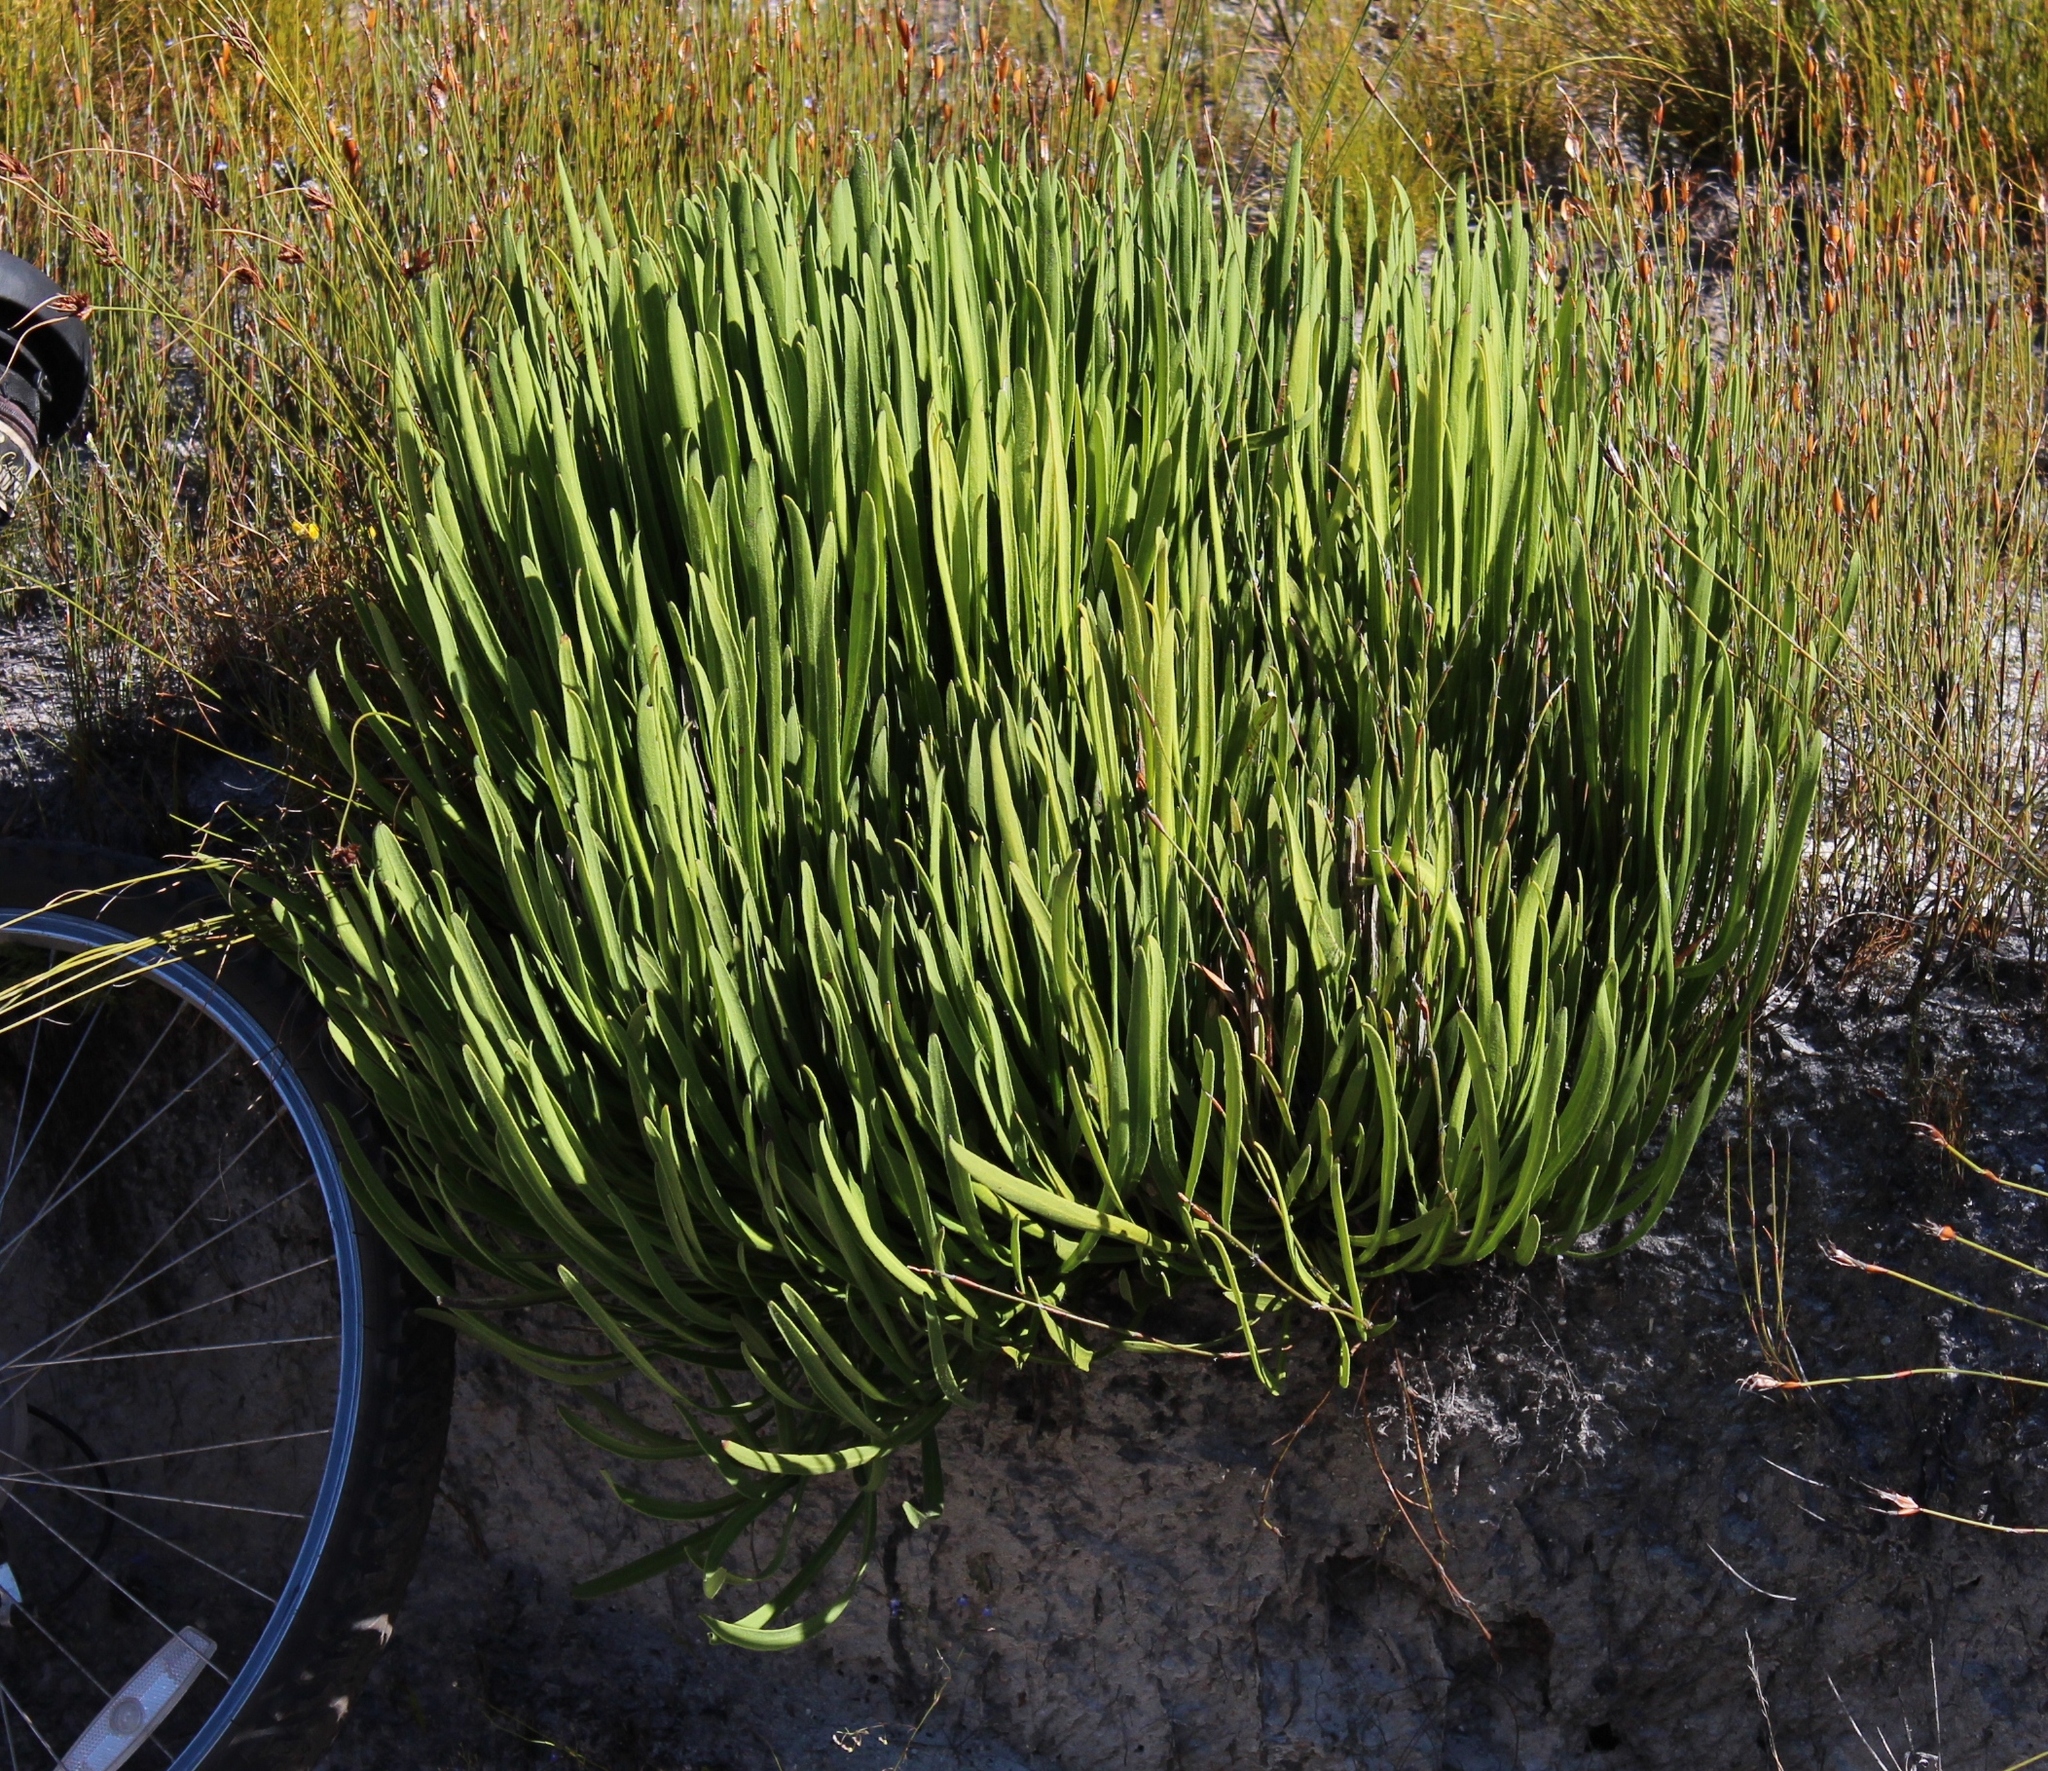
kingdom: Plantae
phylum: Tracheophyta
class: Magnoliopsida
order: Proteales
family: Proteaceae
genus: Protea
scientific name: Protea scabra
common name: Sandpaper-leaf sugarbush
